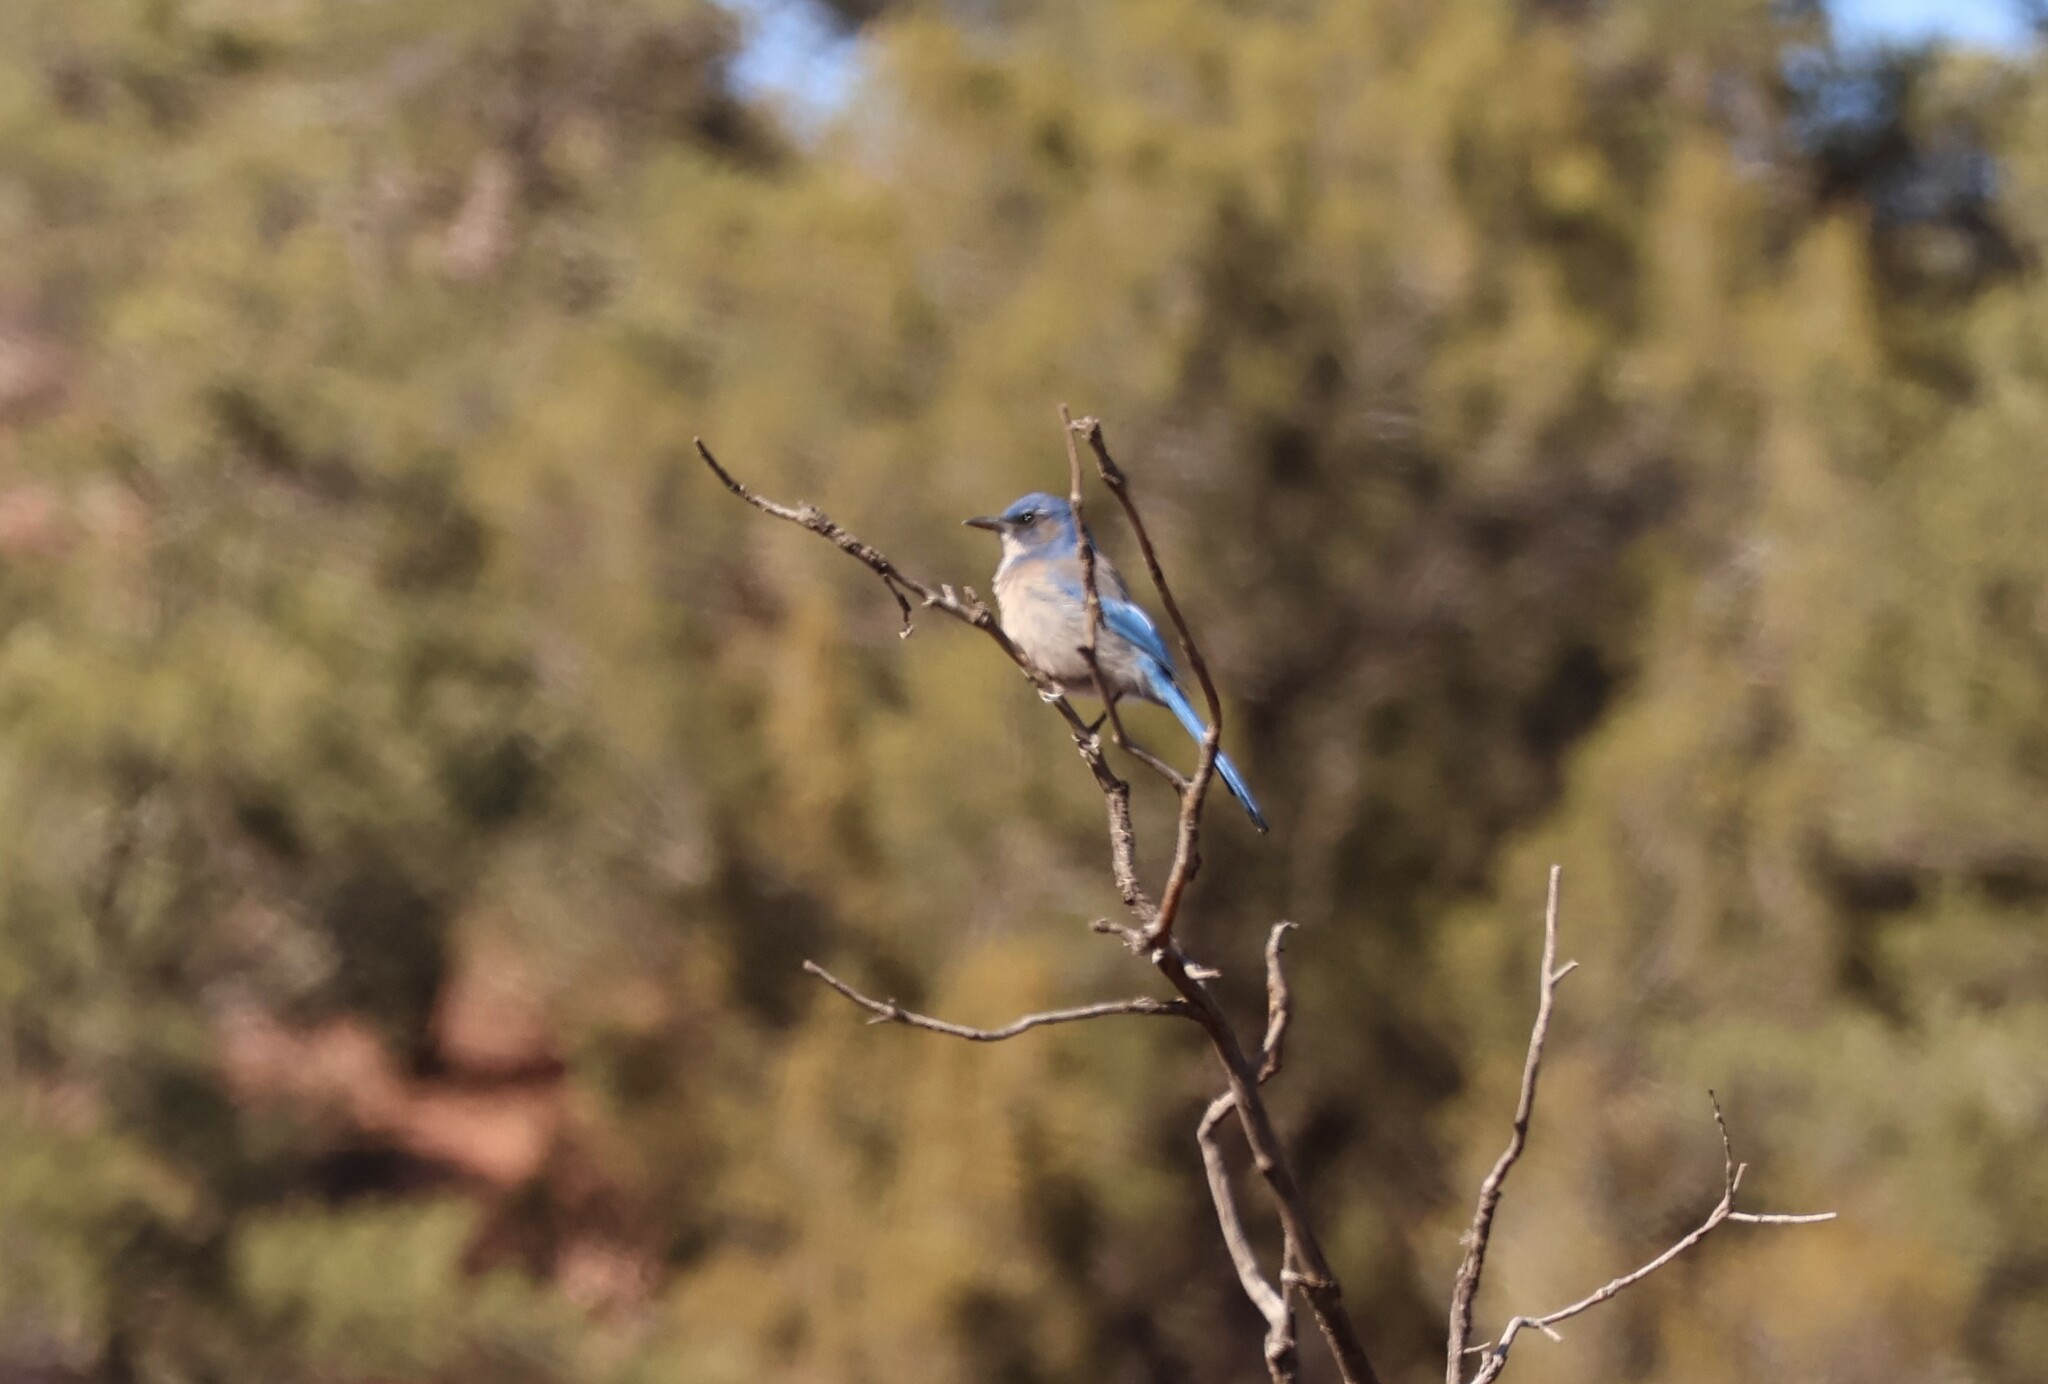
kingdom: Animalia
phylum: Chordata
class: Aves
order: Passeriformes
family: Corvidae
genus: Aphelocoma
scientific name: Aphelocoma woodhouseii
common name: Woodhouse's scrub-jay
